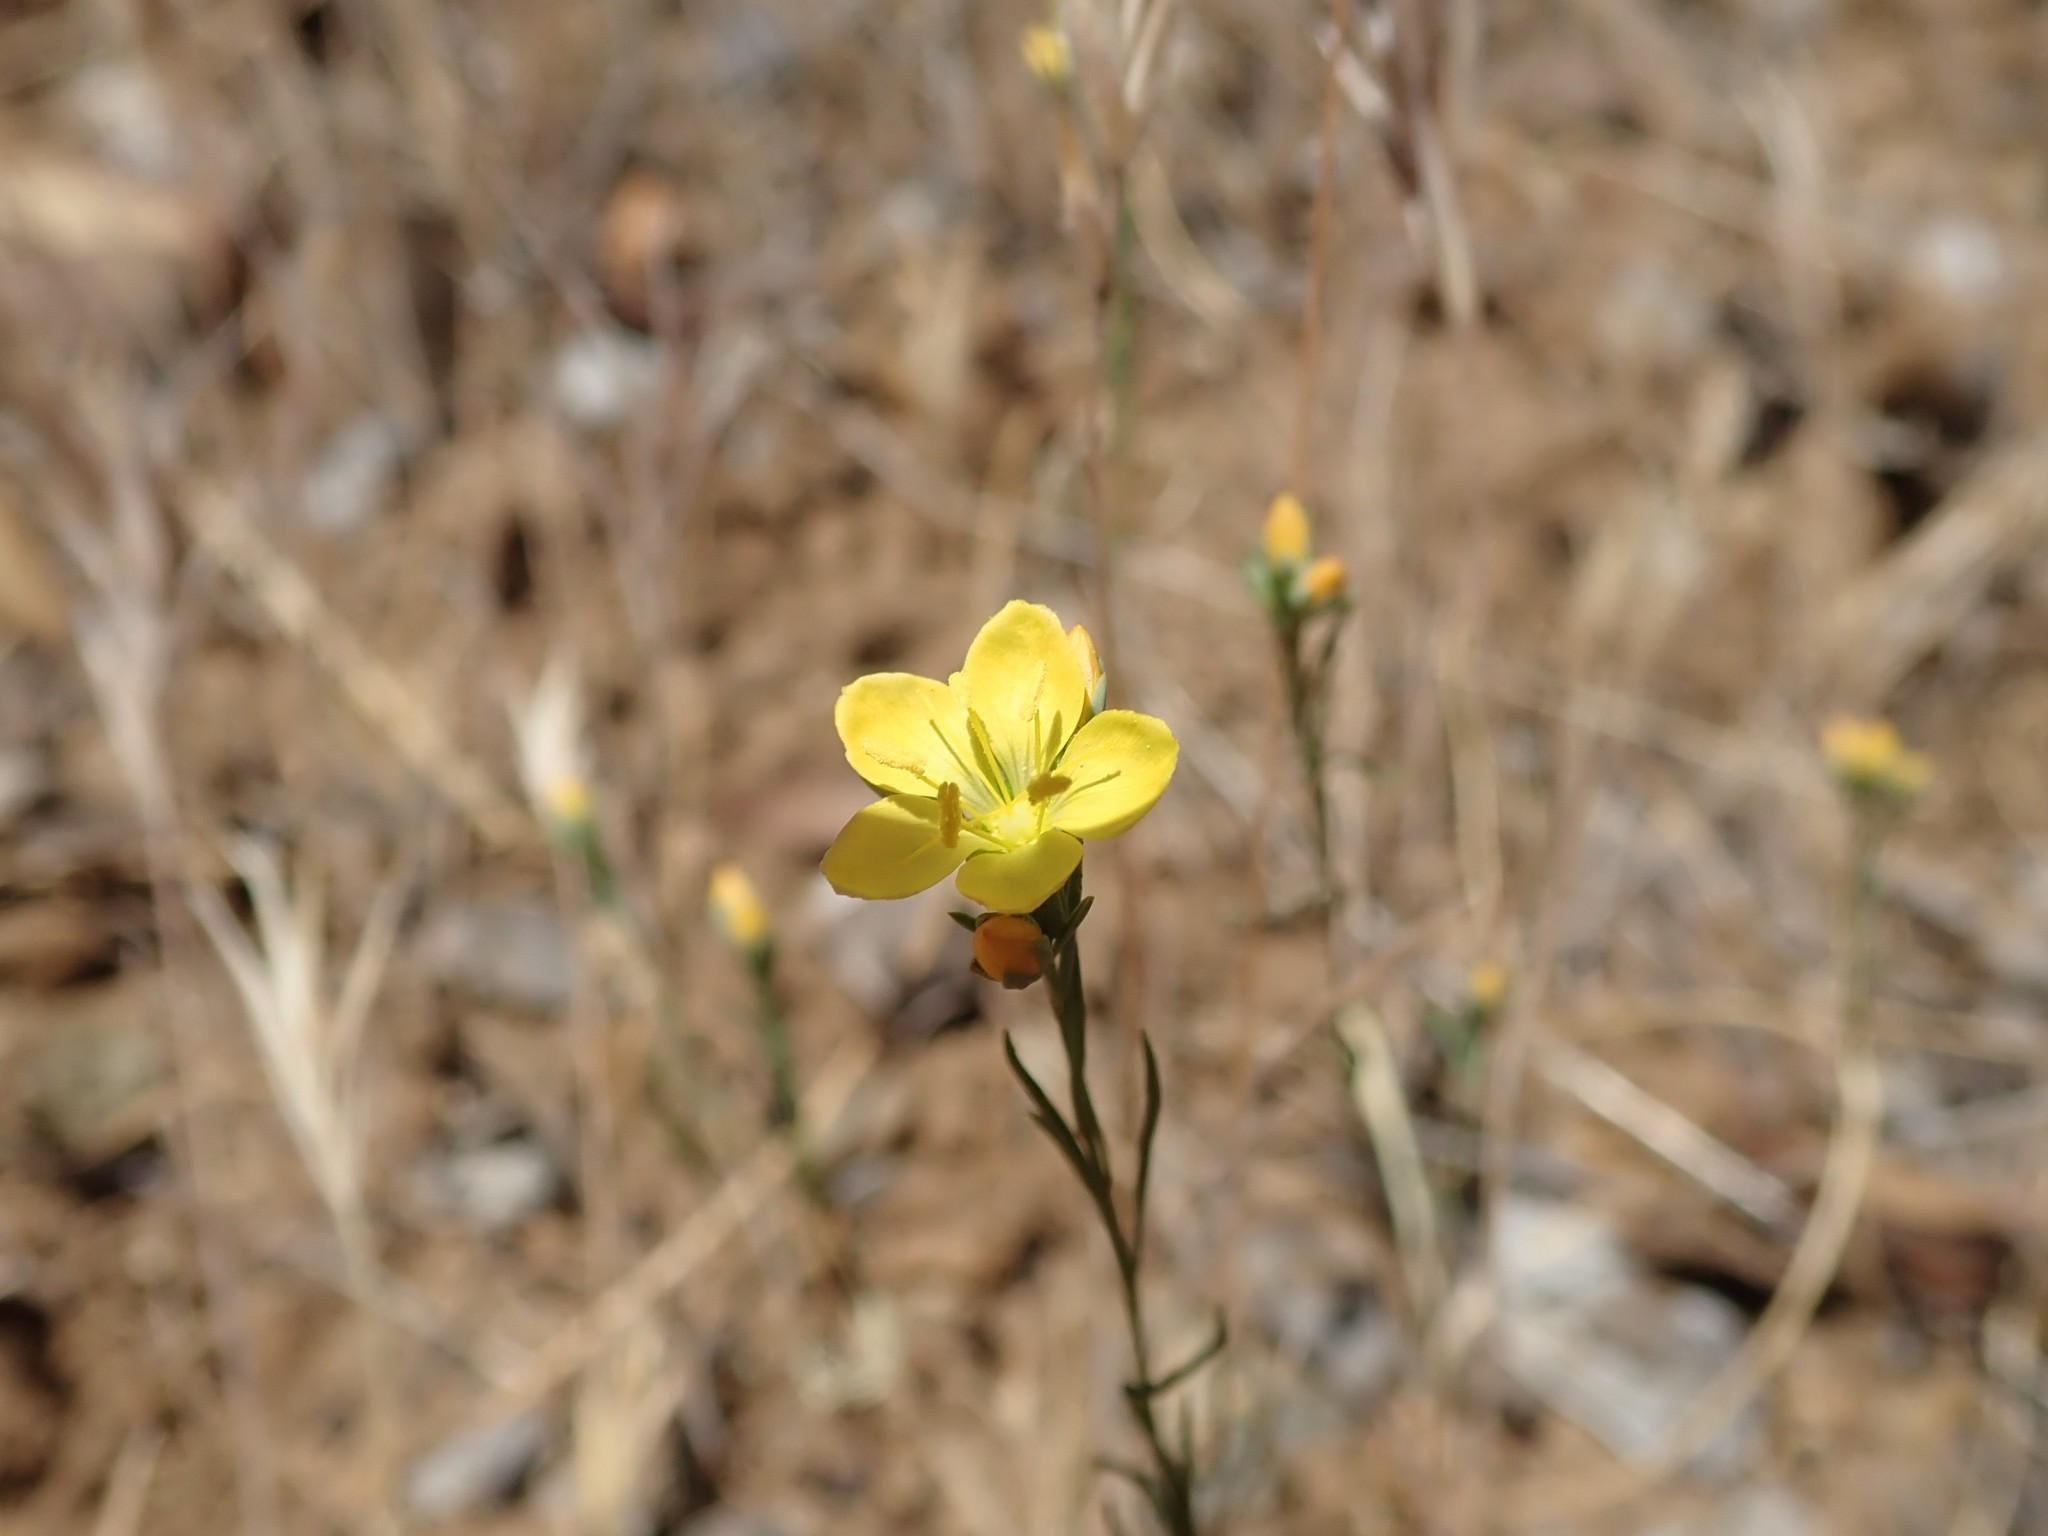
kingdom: Plantae
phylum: Tracheophyta
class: Magnoliopsida
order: Malpighiales
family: Linaceae
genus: Hesperolinon
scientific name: Hesperolinon breweri
